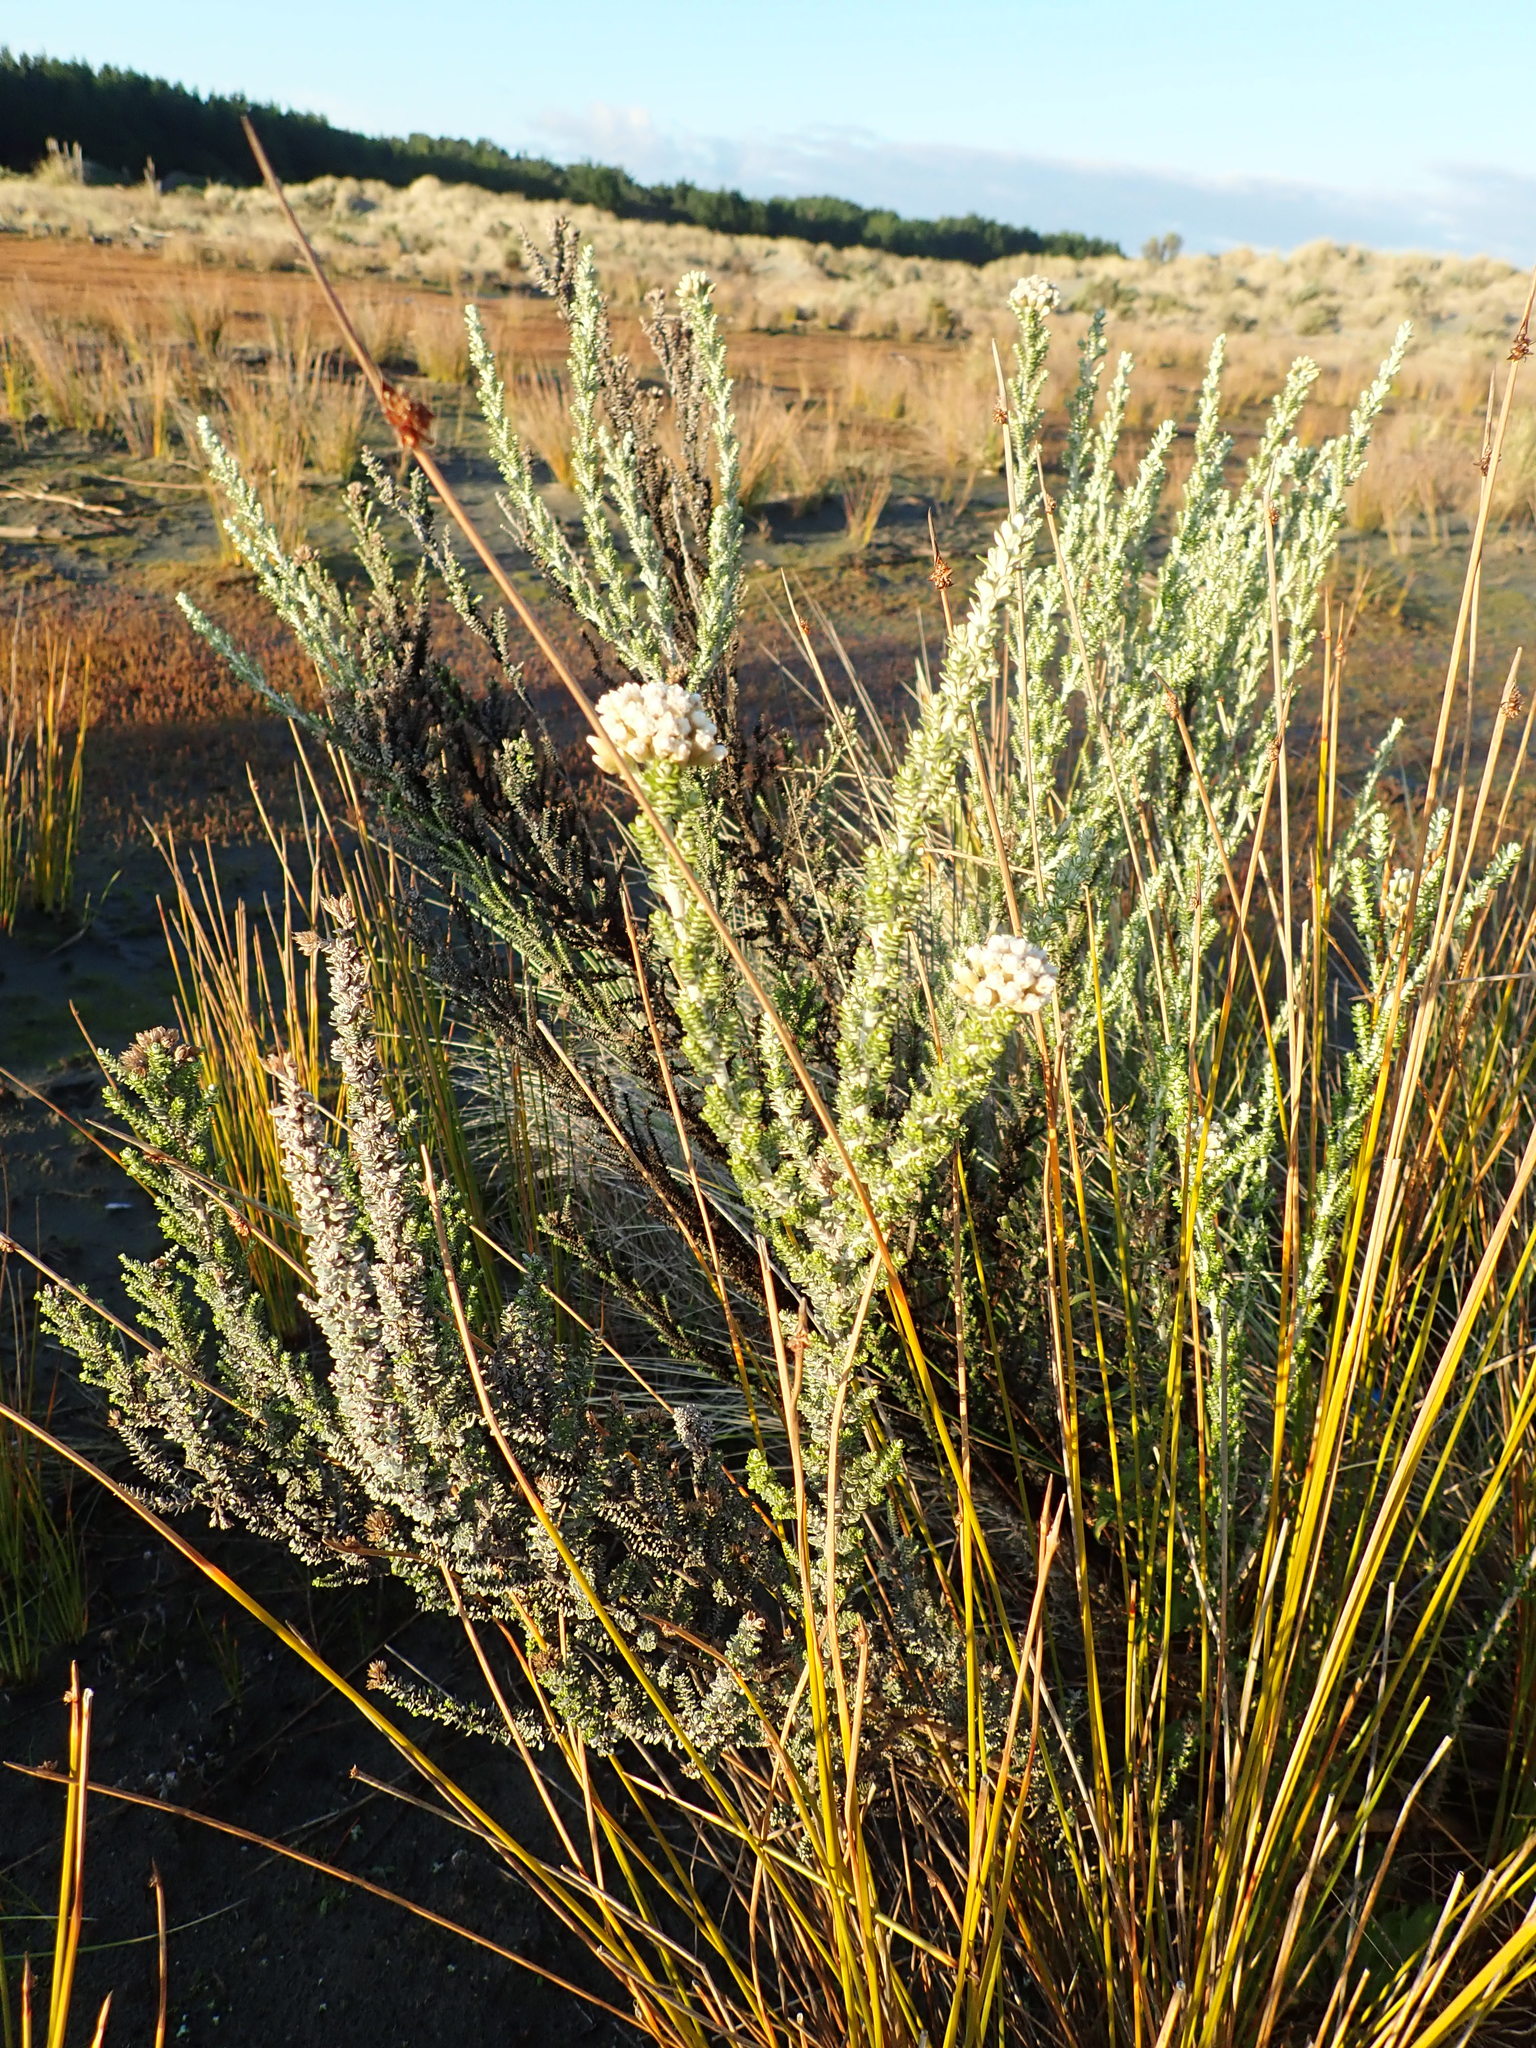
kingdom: Plantae
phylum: Tracheophyta
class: Magnoliopsida
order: Asterales
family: Asteraceae
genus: Ozothamnus
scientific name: Ozothamnus leptophyllus
